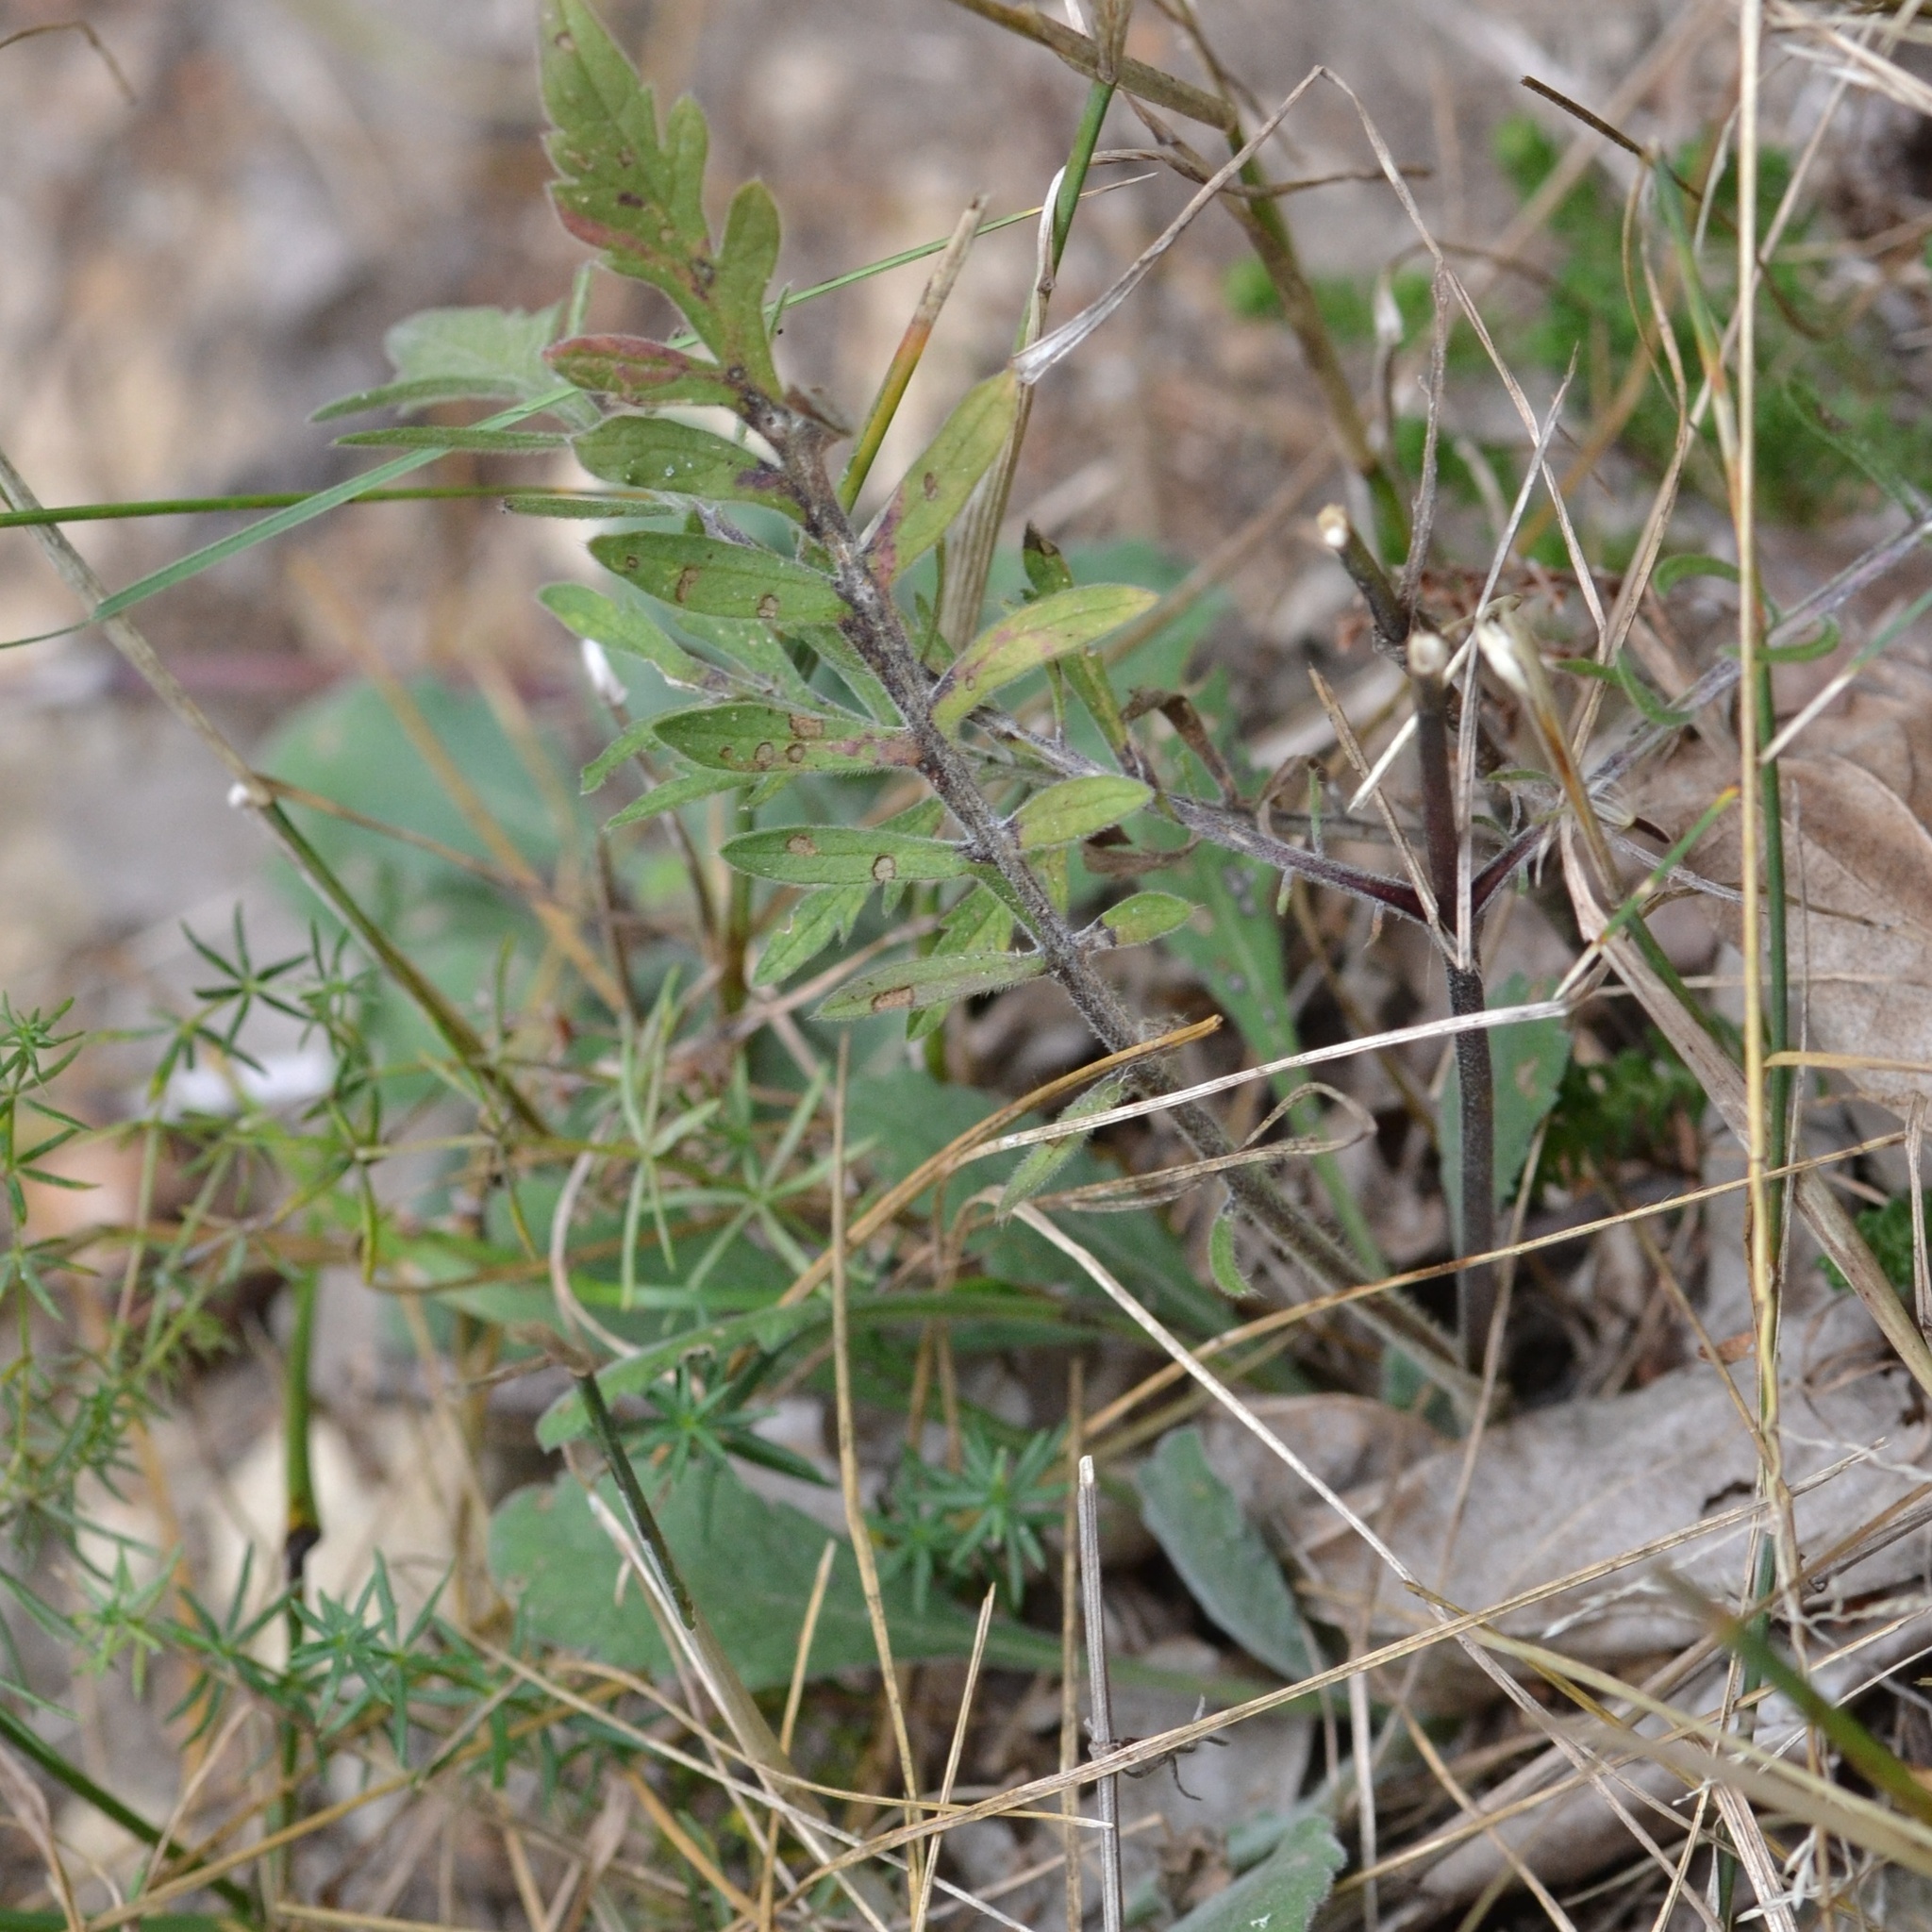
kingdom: Plantae
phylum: Tracheophyta
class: Magnoliopsida
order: Dipsacales
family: Caprifoliaceae
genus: Scabiosa
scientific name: Scabiosa ochroleuca
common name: Cream pincushions
